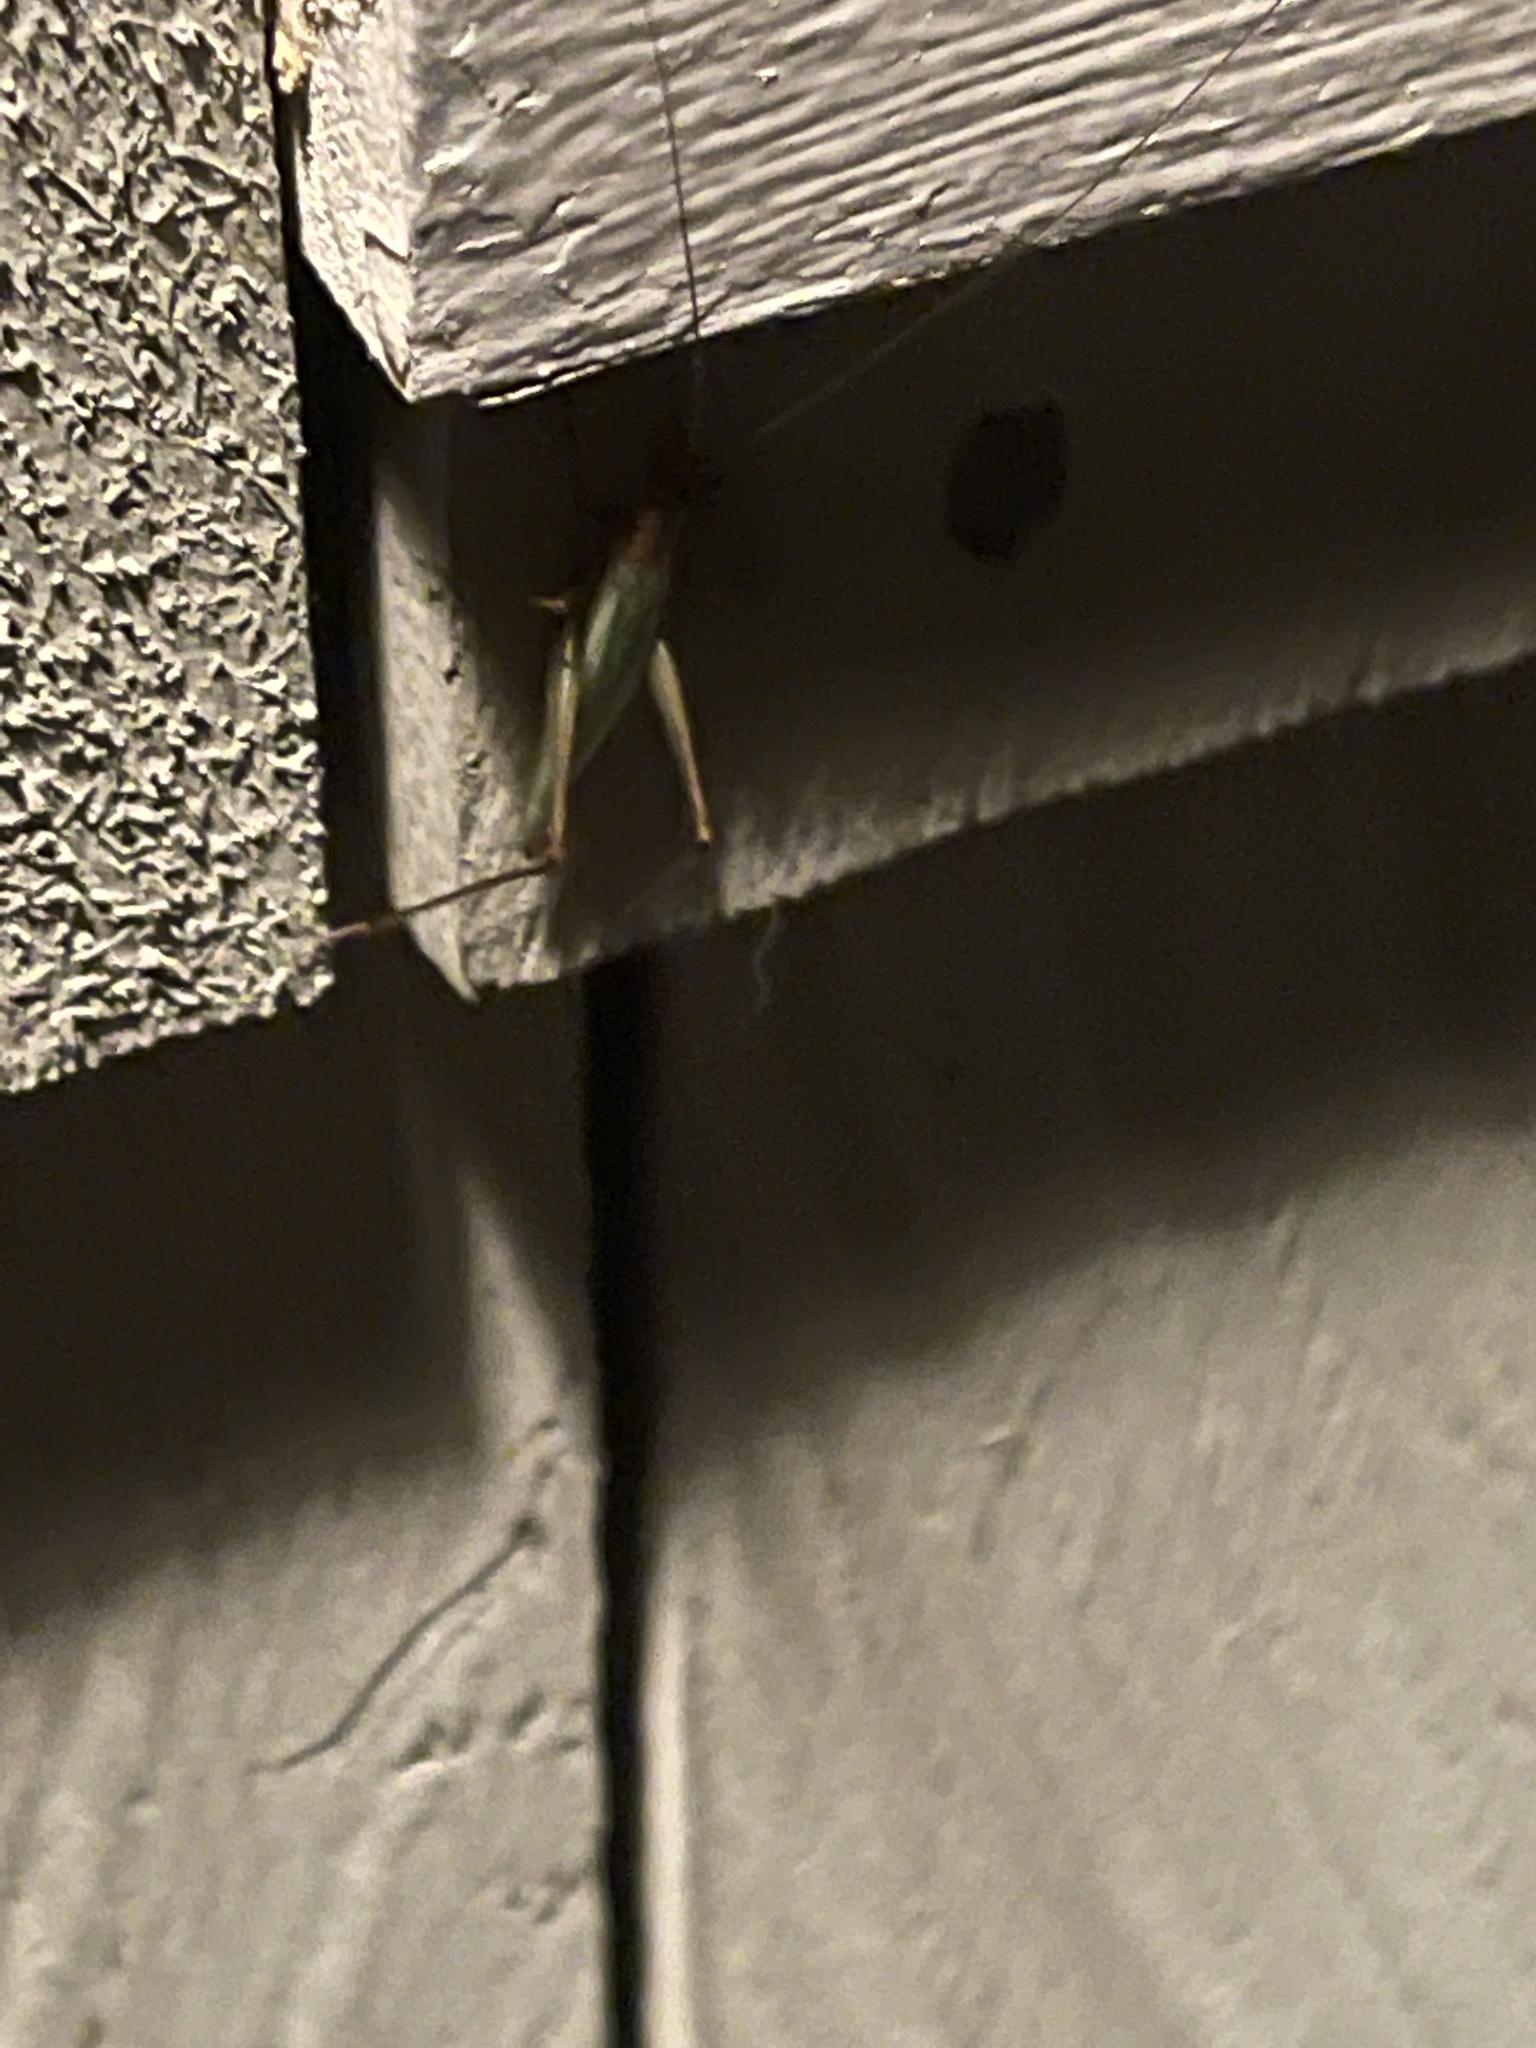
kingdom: Animalia
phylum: Arthropoda
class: Insecta
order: Orthoptera
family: Gryllidae
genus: Oecanthus
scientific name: Oecanthus pini
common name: Pine tree cricket
